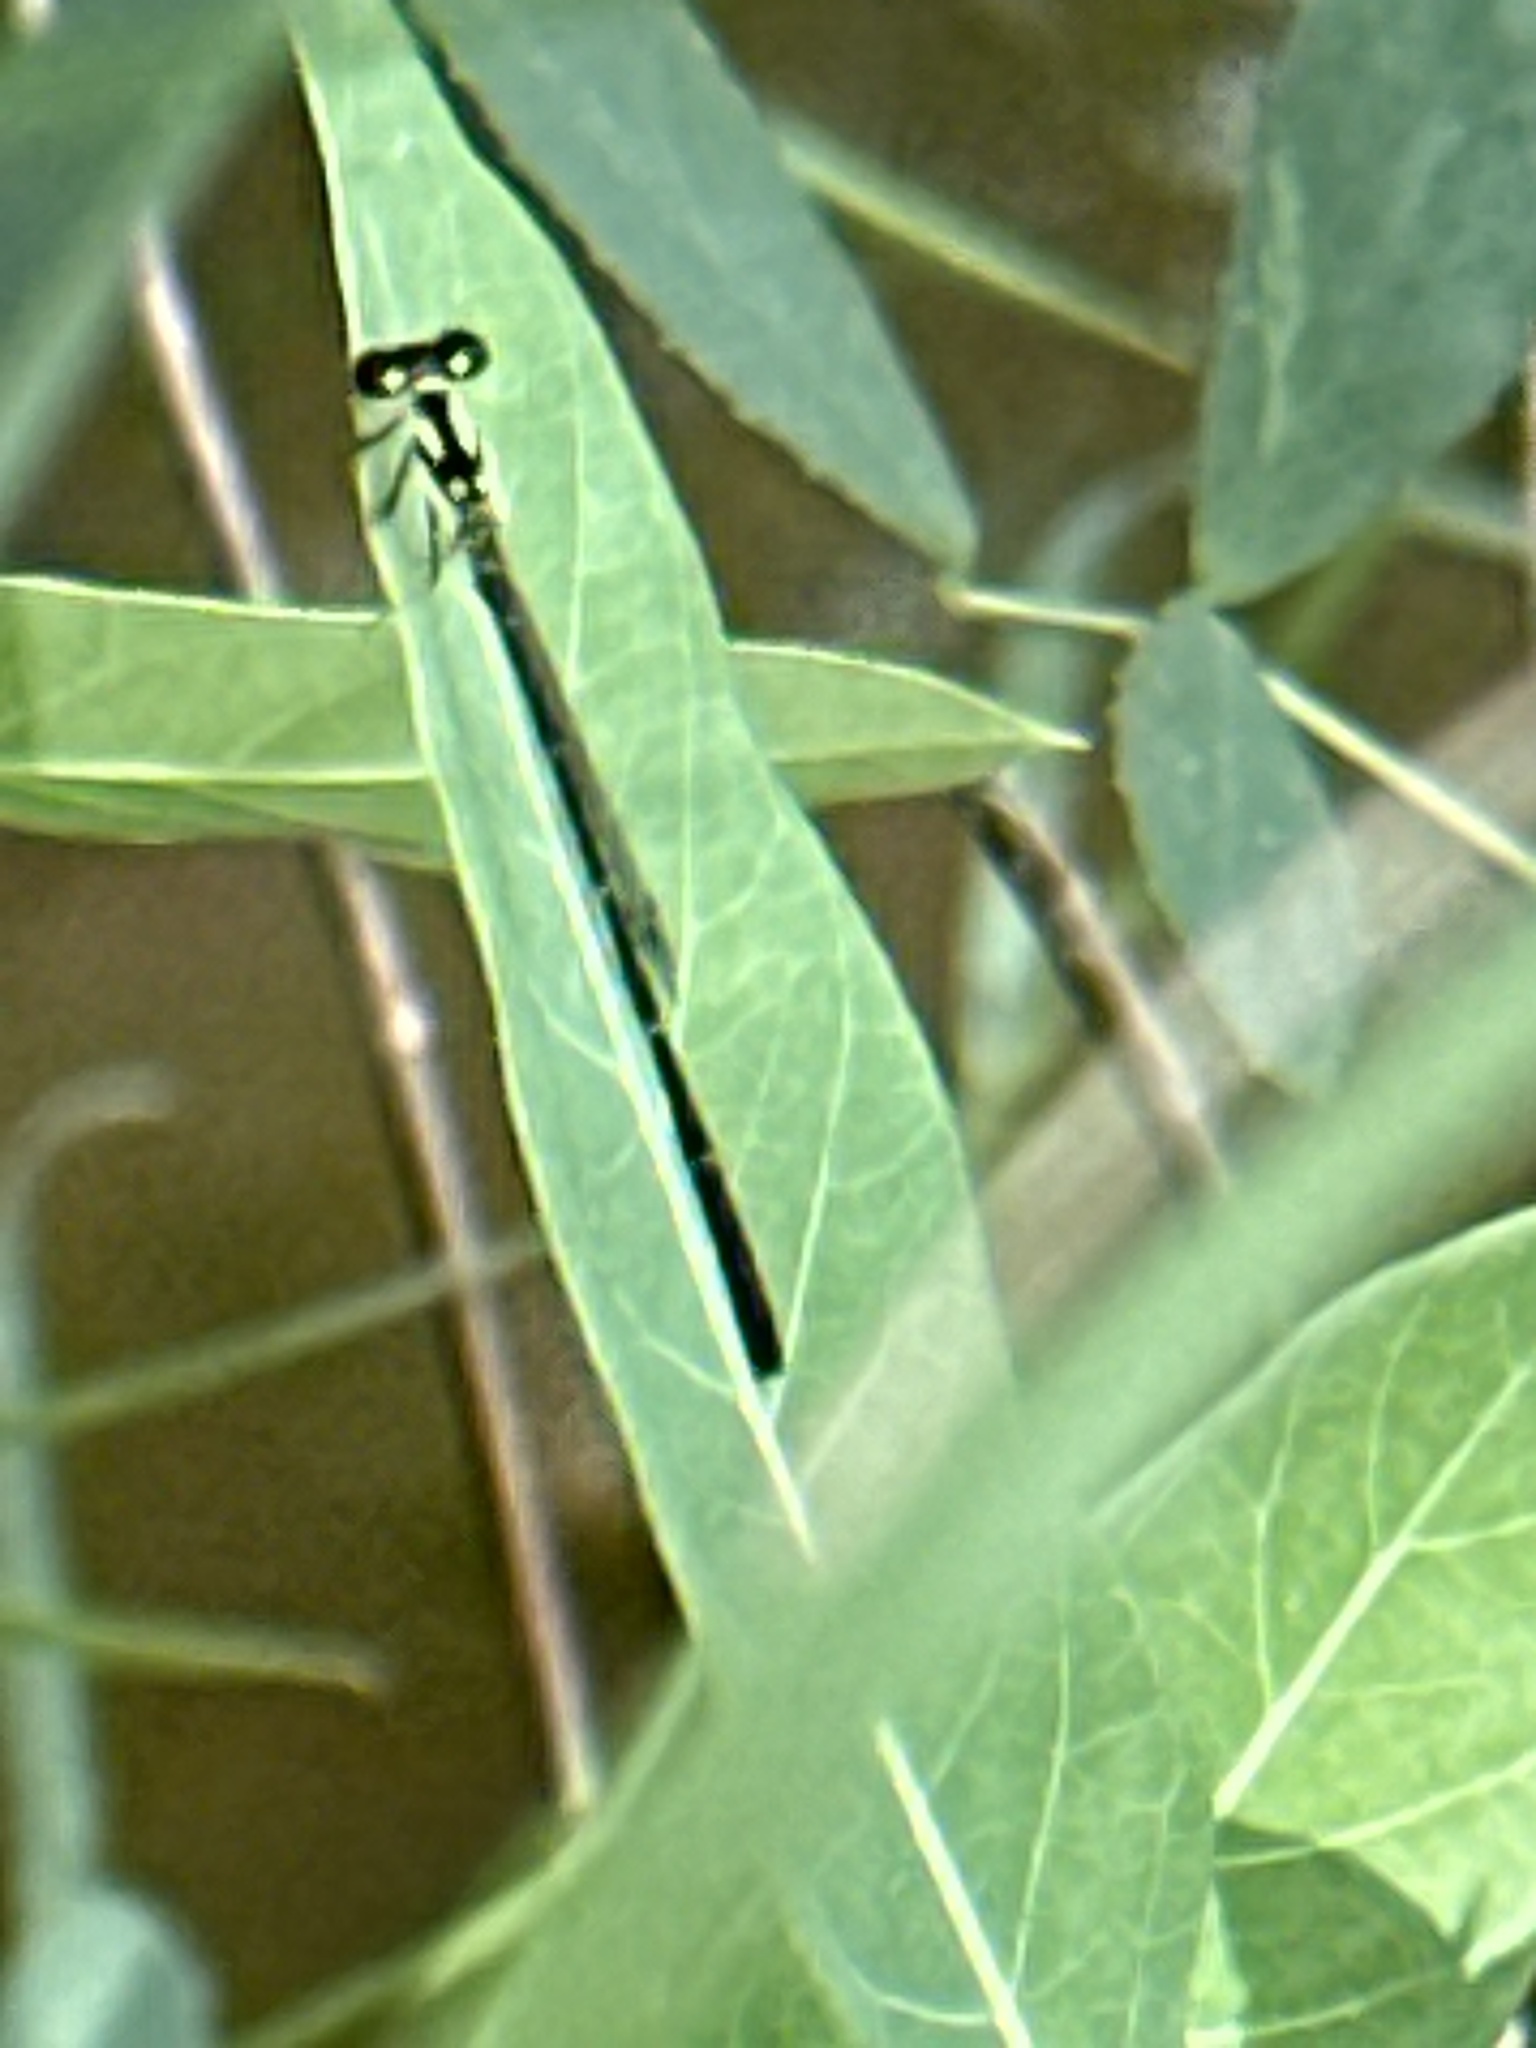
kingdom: Animalia
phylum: Arthropoda
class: Insecta
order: Odonata
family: Coenagrionidae
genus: Ischnura
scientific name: Ischnura posita
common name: Fragile forktail
